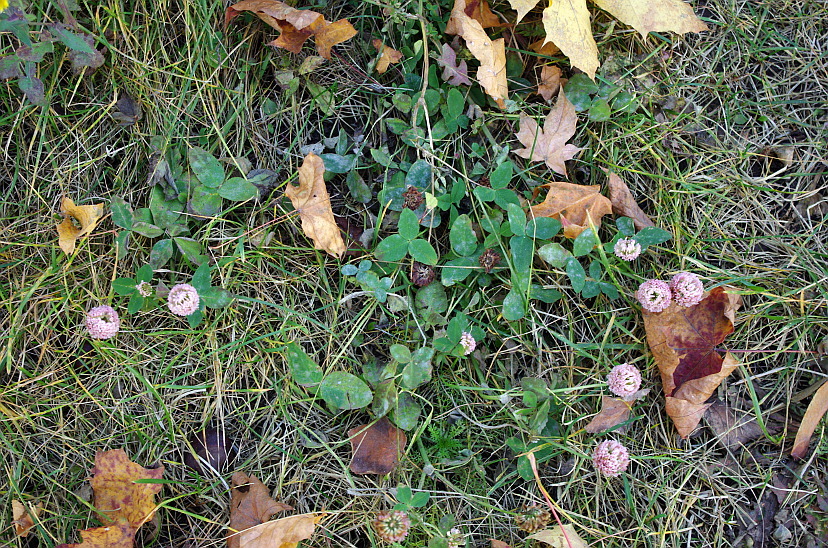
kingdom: Plantae
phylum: Tracheophyta
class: Magnoliopsida
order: Fabales
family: Fabaceae
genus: Trifolium
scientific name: Trifolium hybridum
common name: Alsike clover
